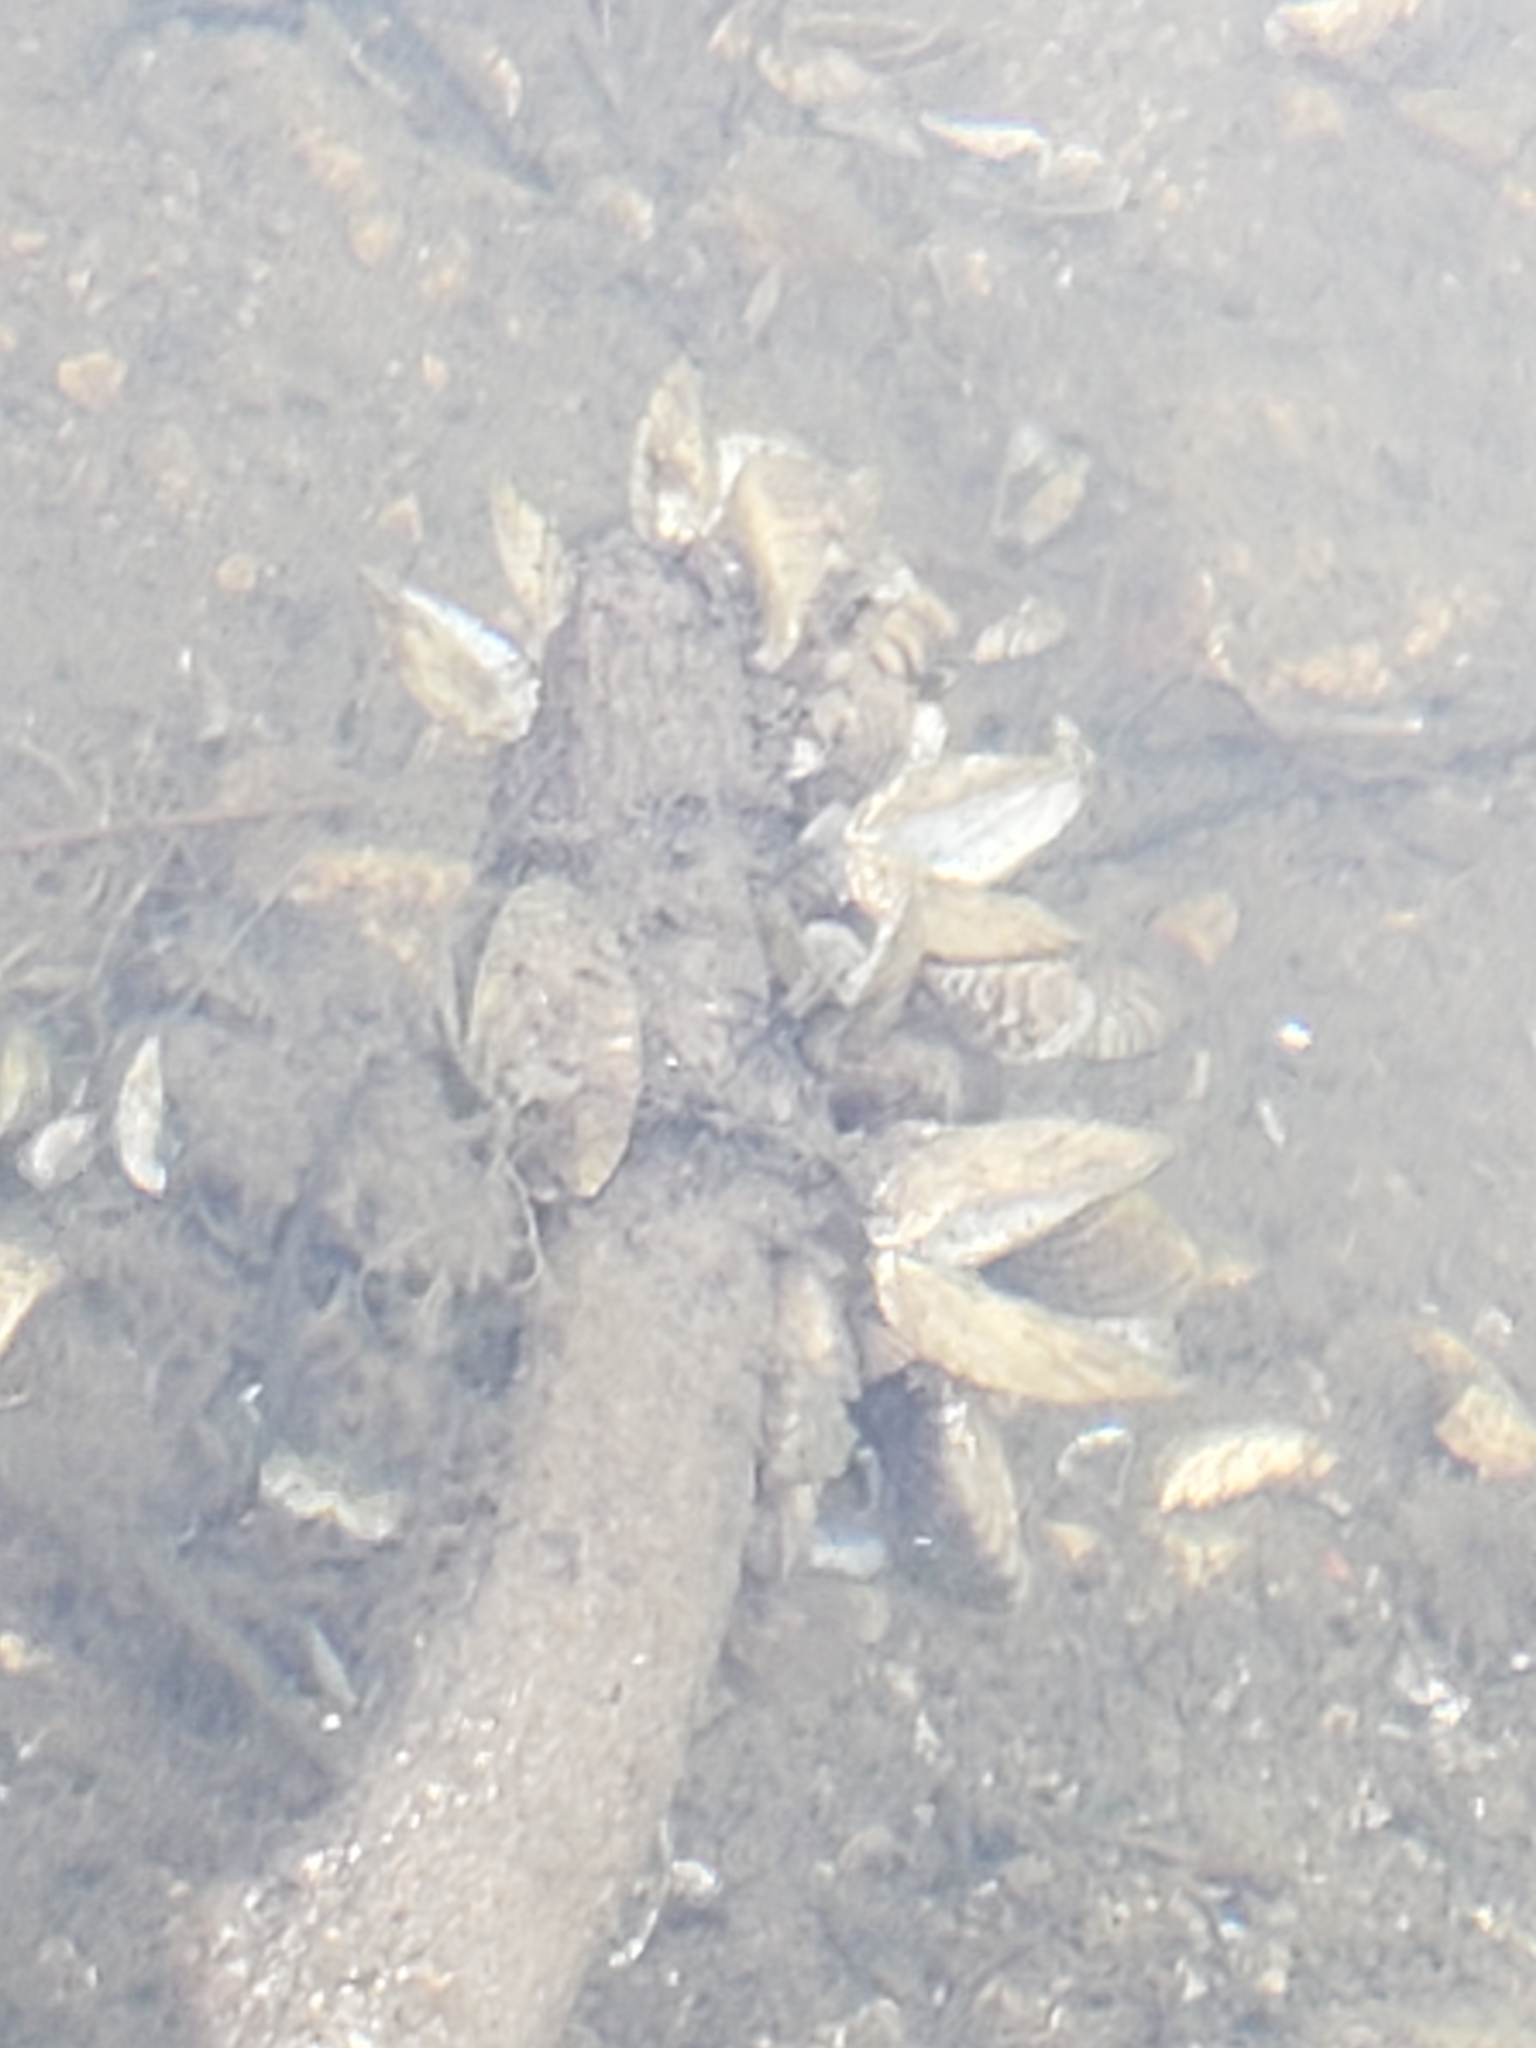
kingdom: Animalia
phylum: Mollusca
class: Bivalvia
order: Myida
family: Dreissenidae
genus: Dreissena
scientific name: Dreissena polymorpha
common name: Zebra mussel
